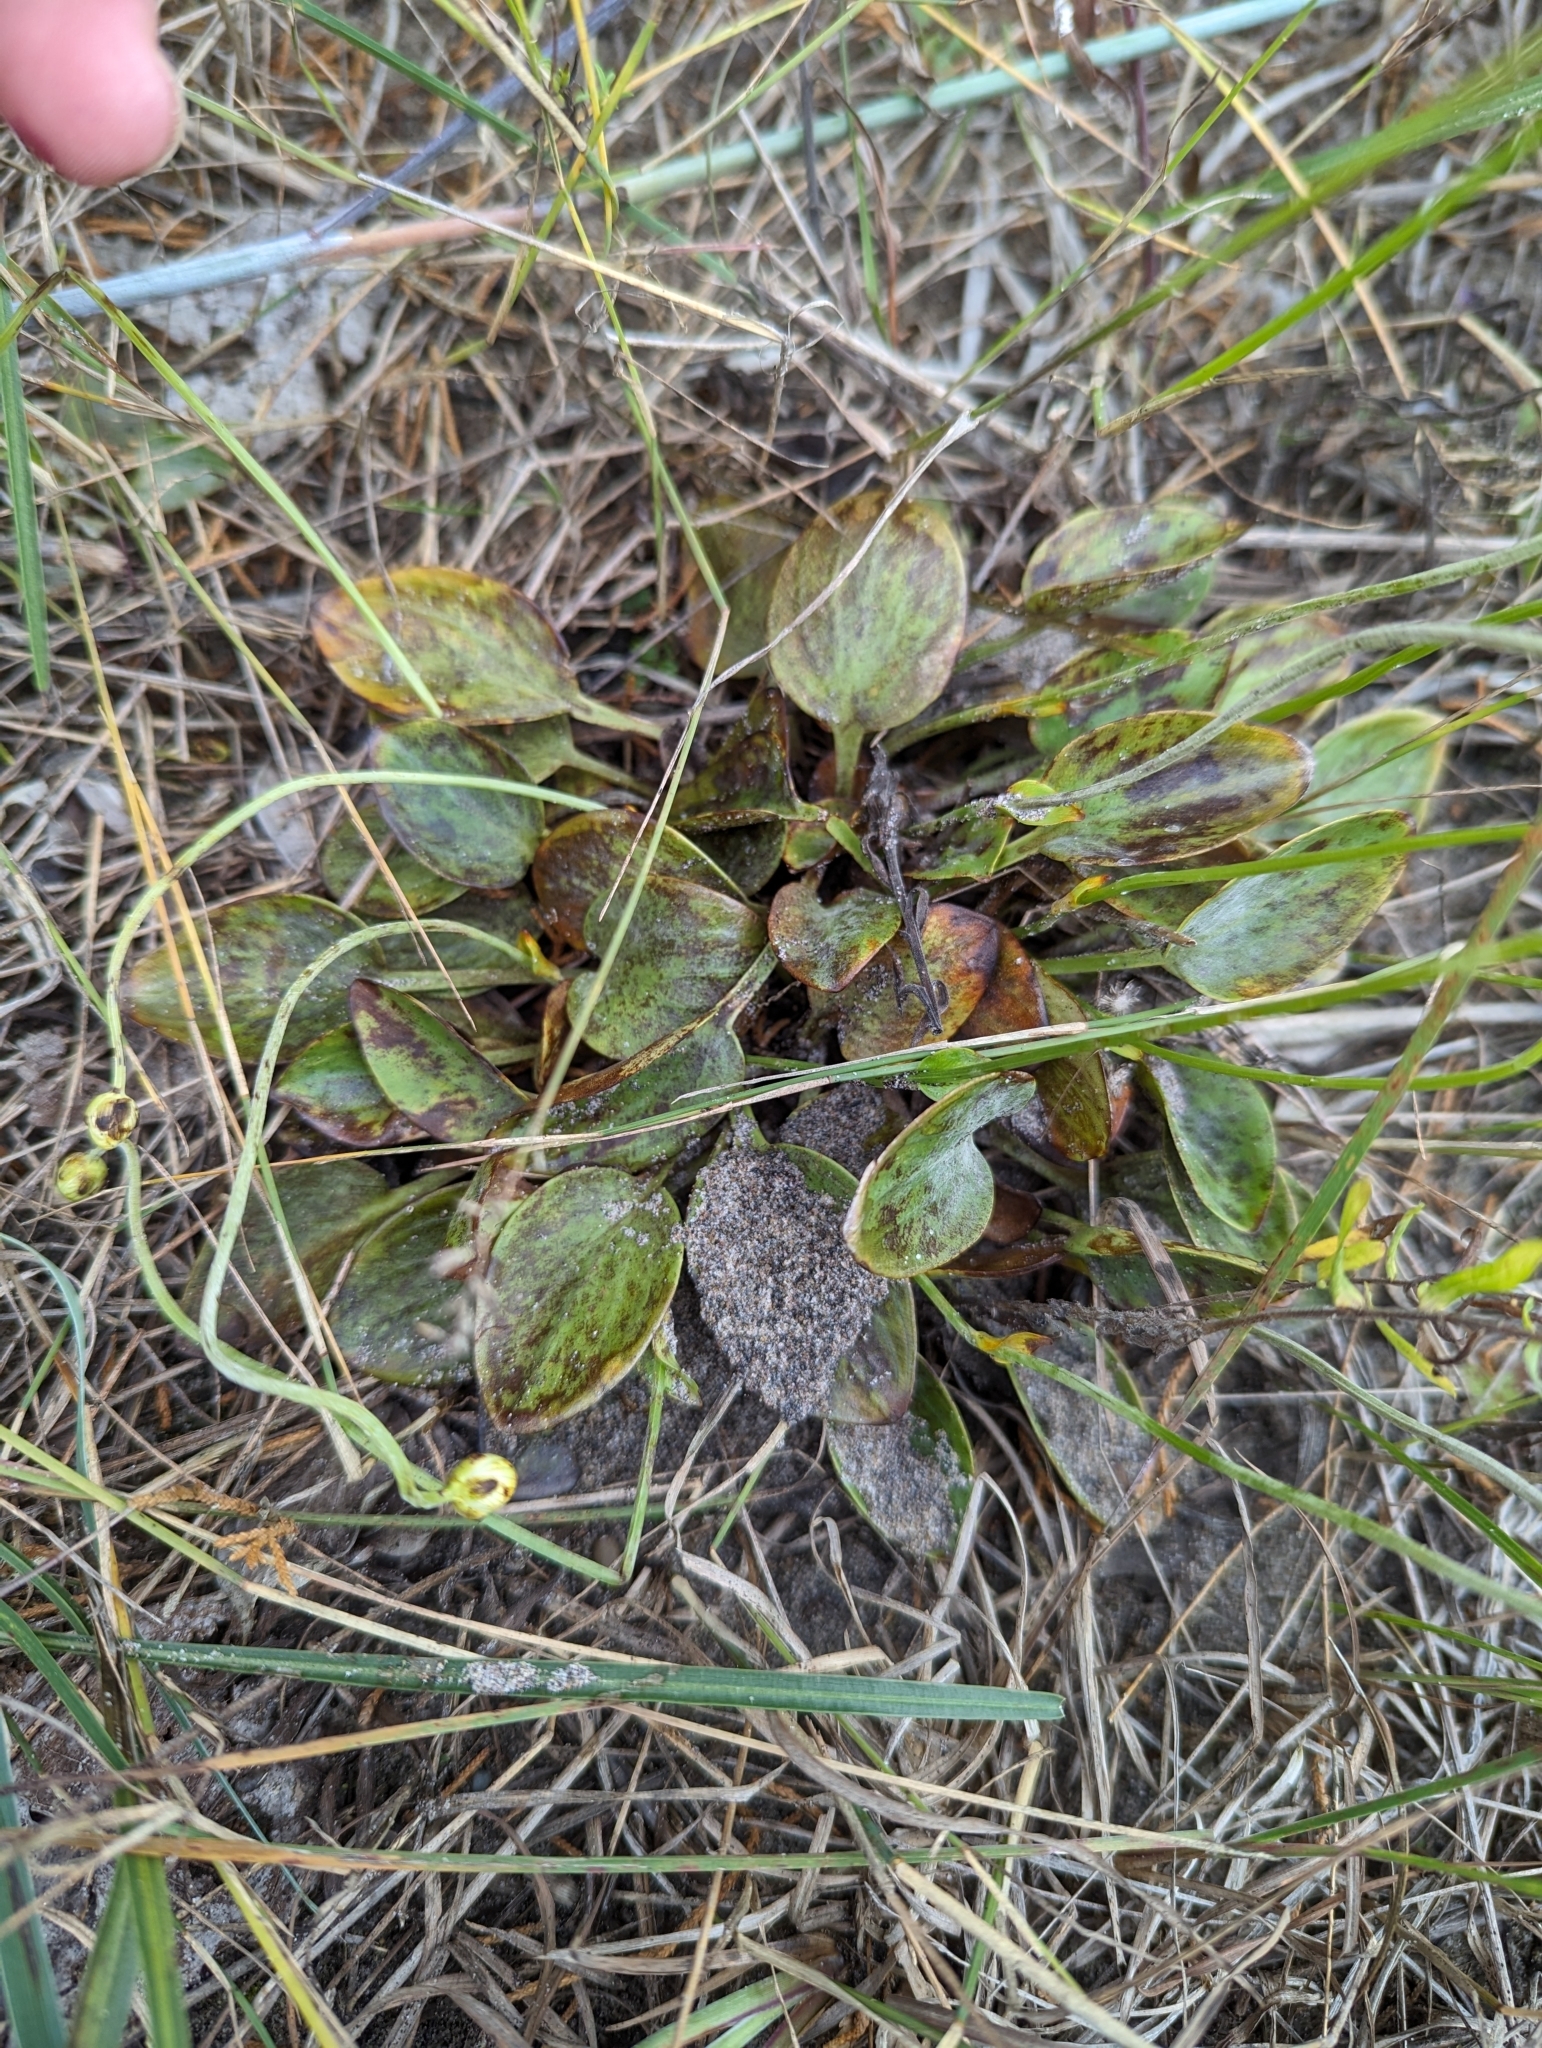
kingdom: Plantae
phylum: Tracheophyta
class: Magnoliopsida
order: Celastrales
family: Parnassiaceae
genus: Parnassia
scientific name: Parnassia glauca
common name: American grass-of-parnassus
